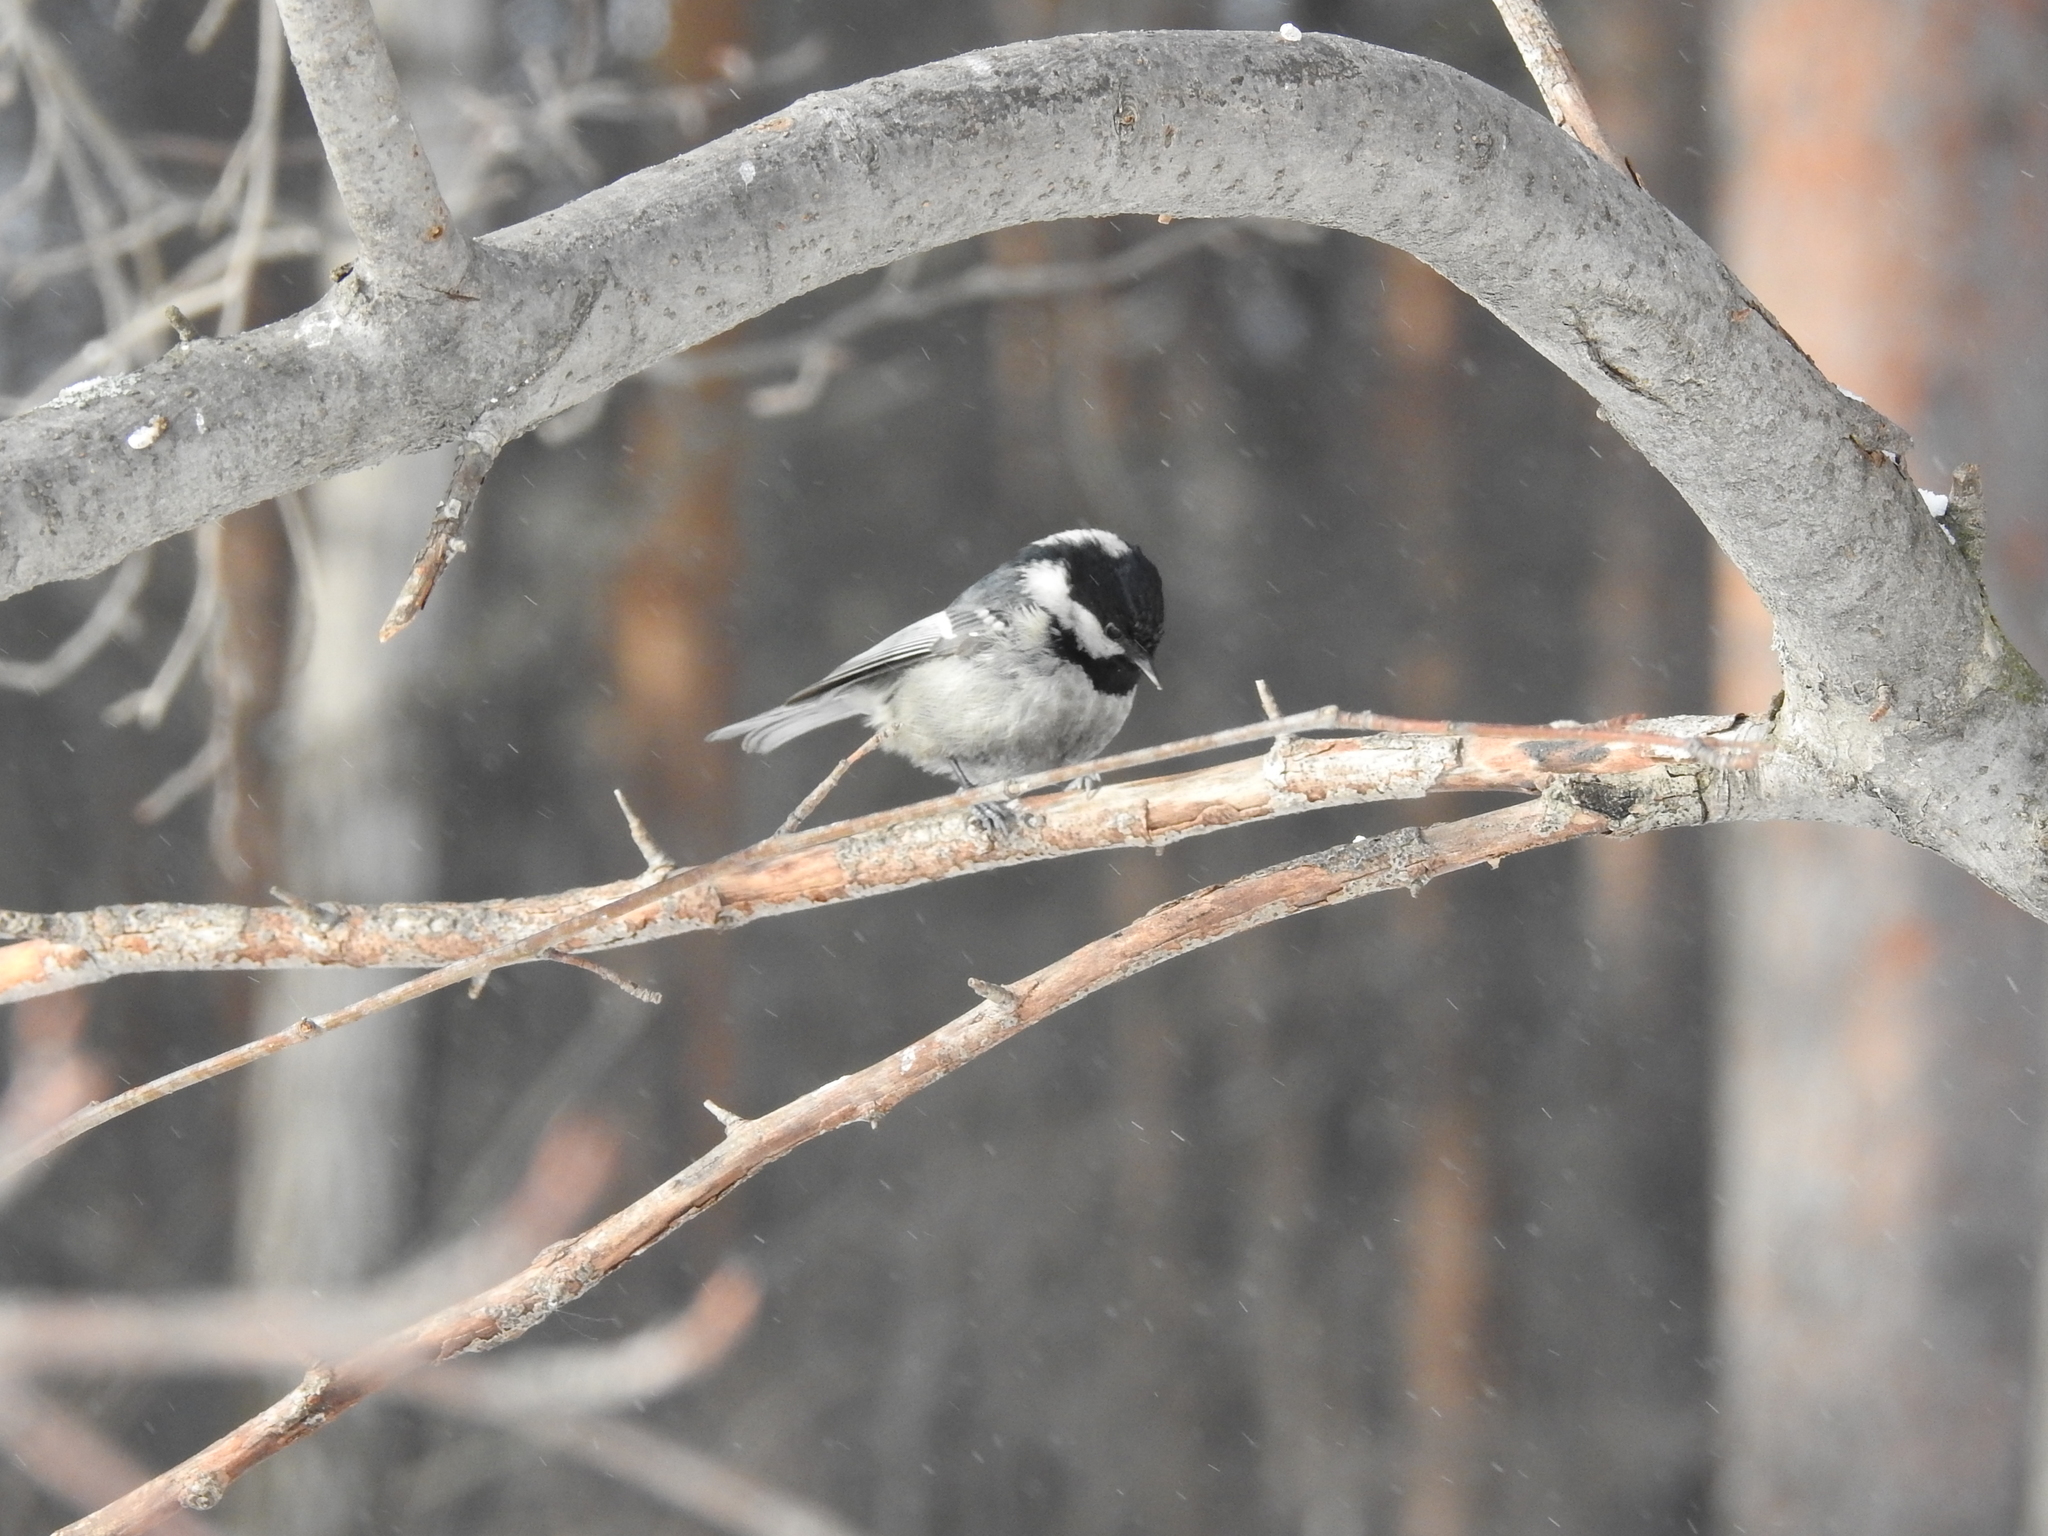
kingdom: Animalia
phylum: Chordata
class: Aves
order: Passeriformes
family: Paridae
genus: Periparus
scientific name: Periparus ater
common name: Coal tit
